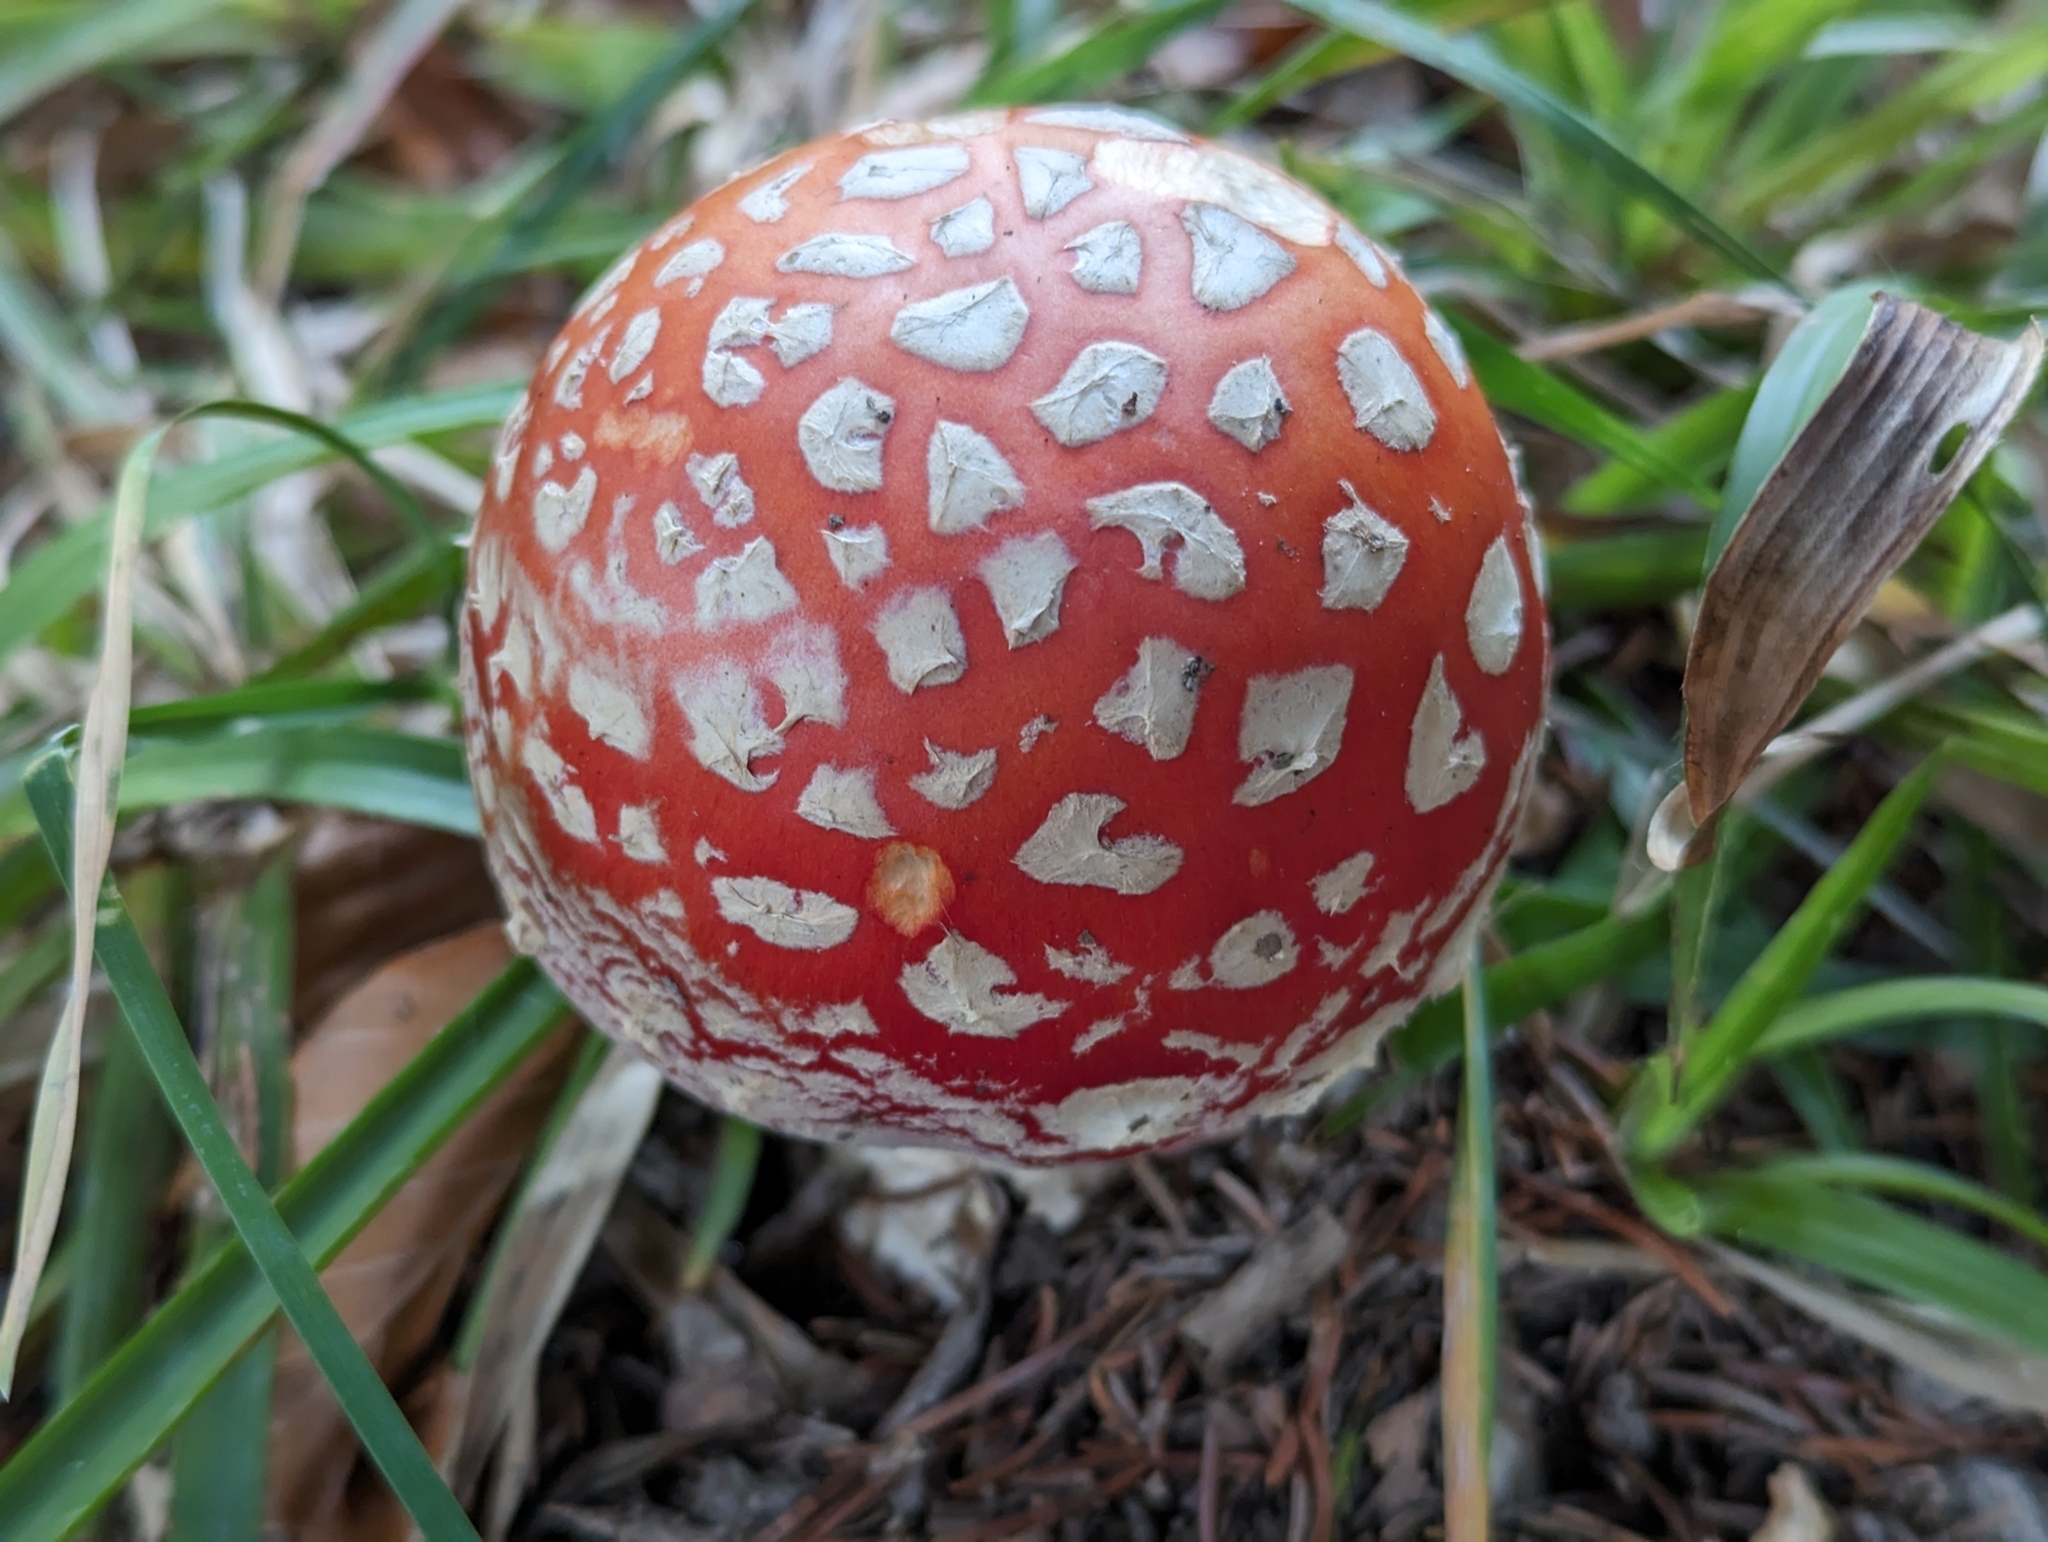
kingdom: Fungi
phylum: Basidiomycota
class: Agaricomycetes
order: Agaricales
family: Amanitaceae
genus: Amanita
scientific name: Amanita muscaria
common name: Fly agaric
